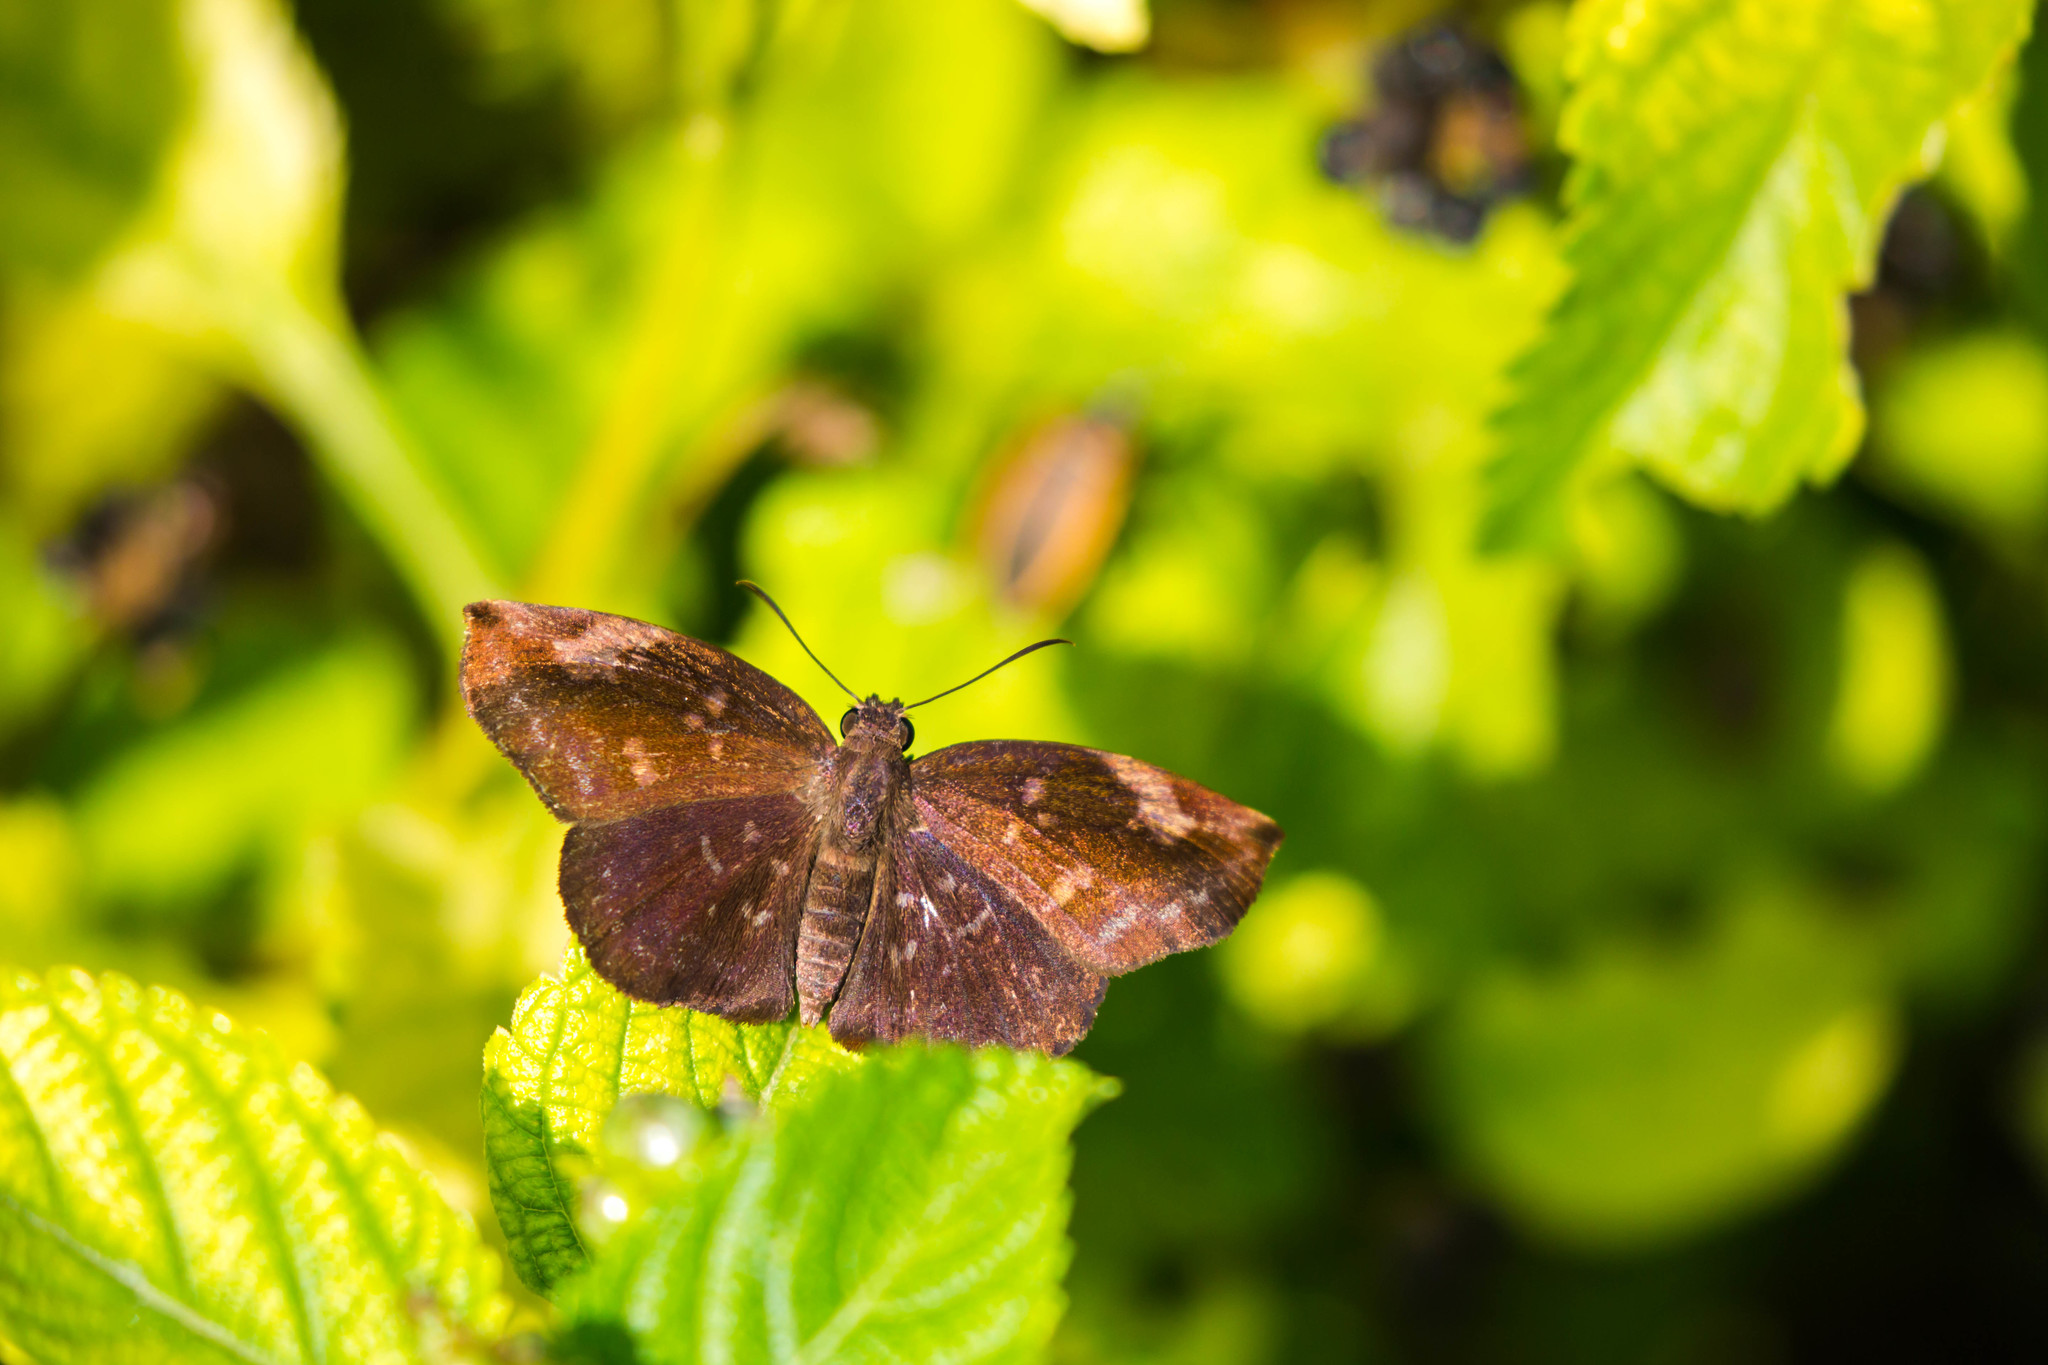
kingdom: Animalia
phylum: Arthropoda
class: Insecta
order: Lepidoptera
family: Hesperiidae
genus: Achlyodes
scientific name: Achlyodes thraso
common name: Sickle-winged skipper
